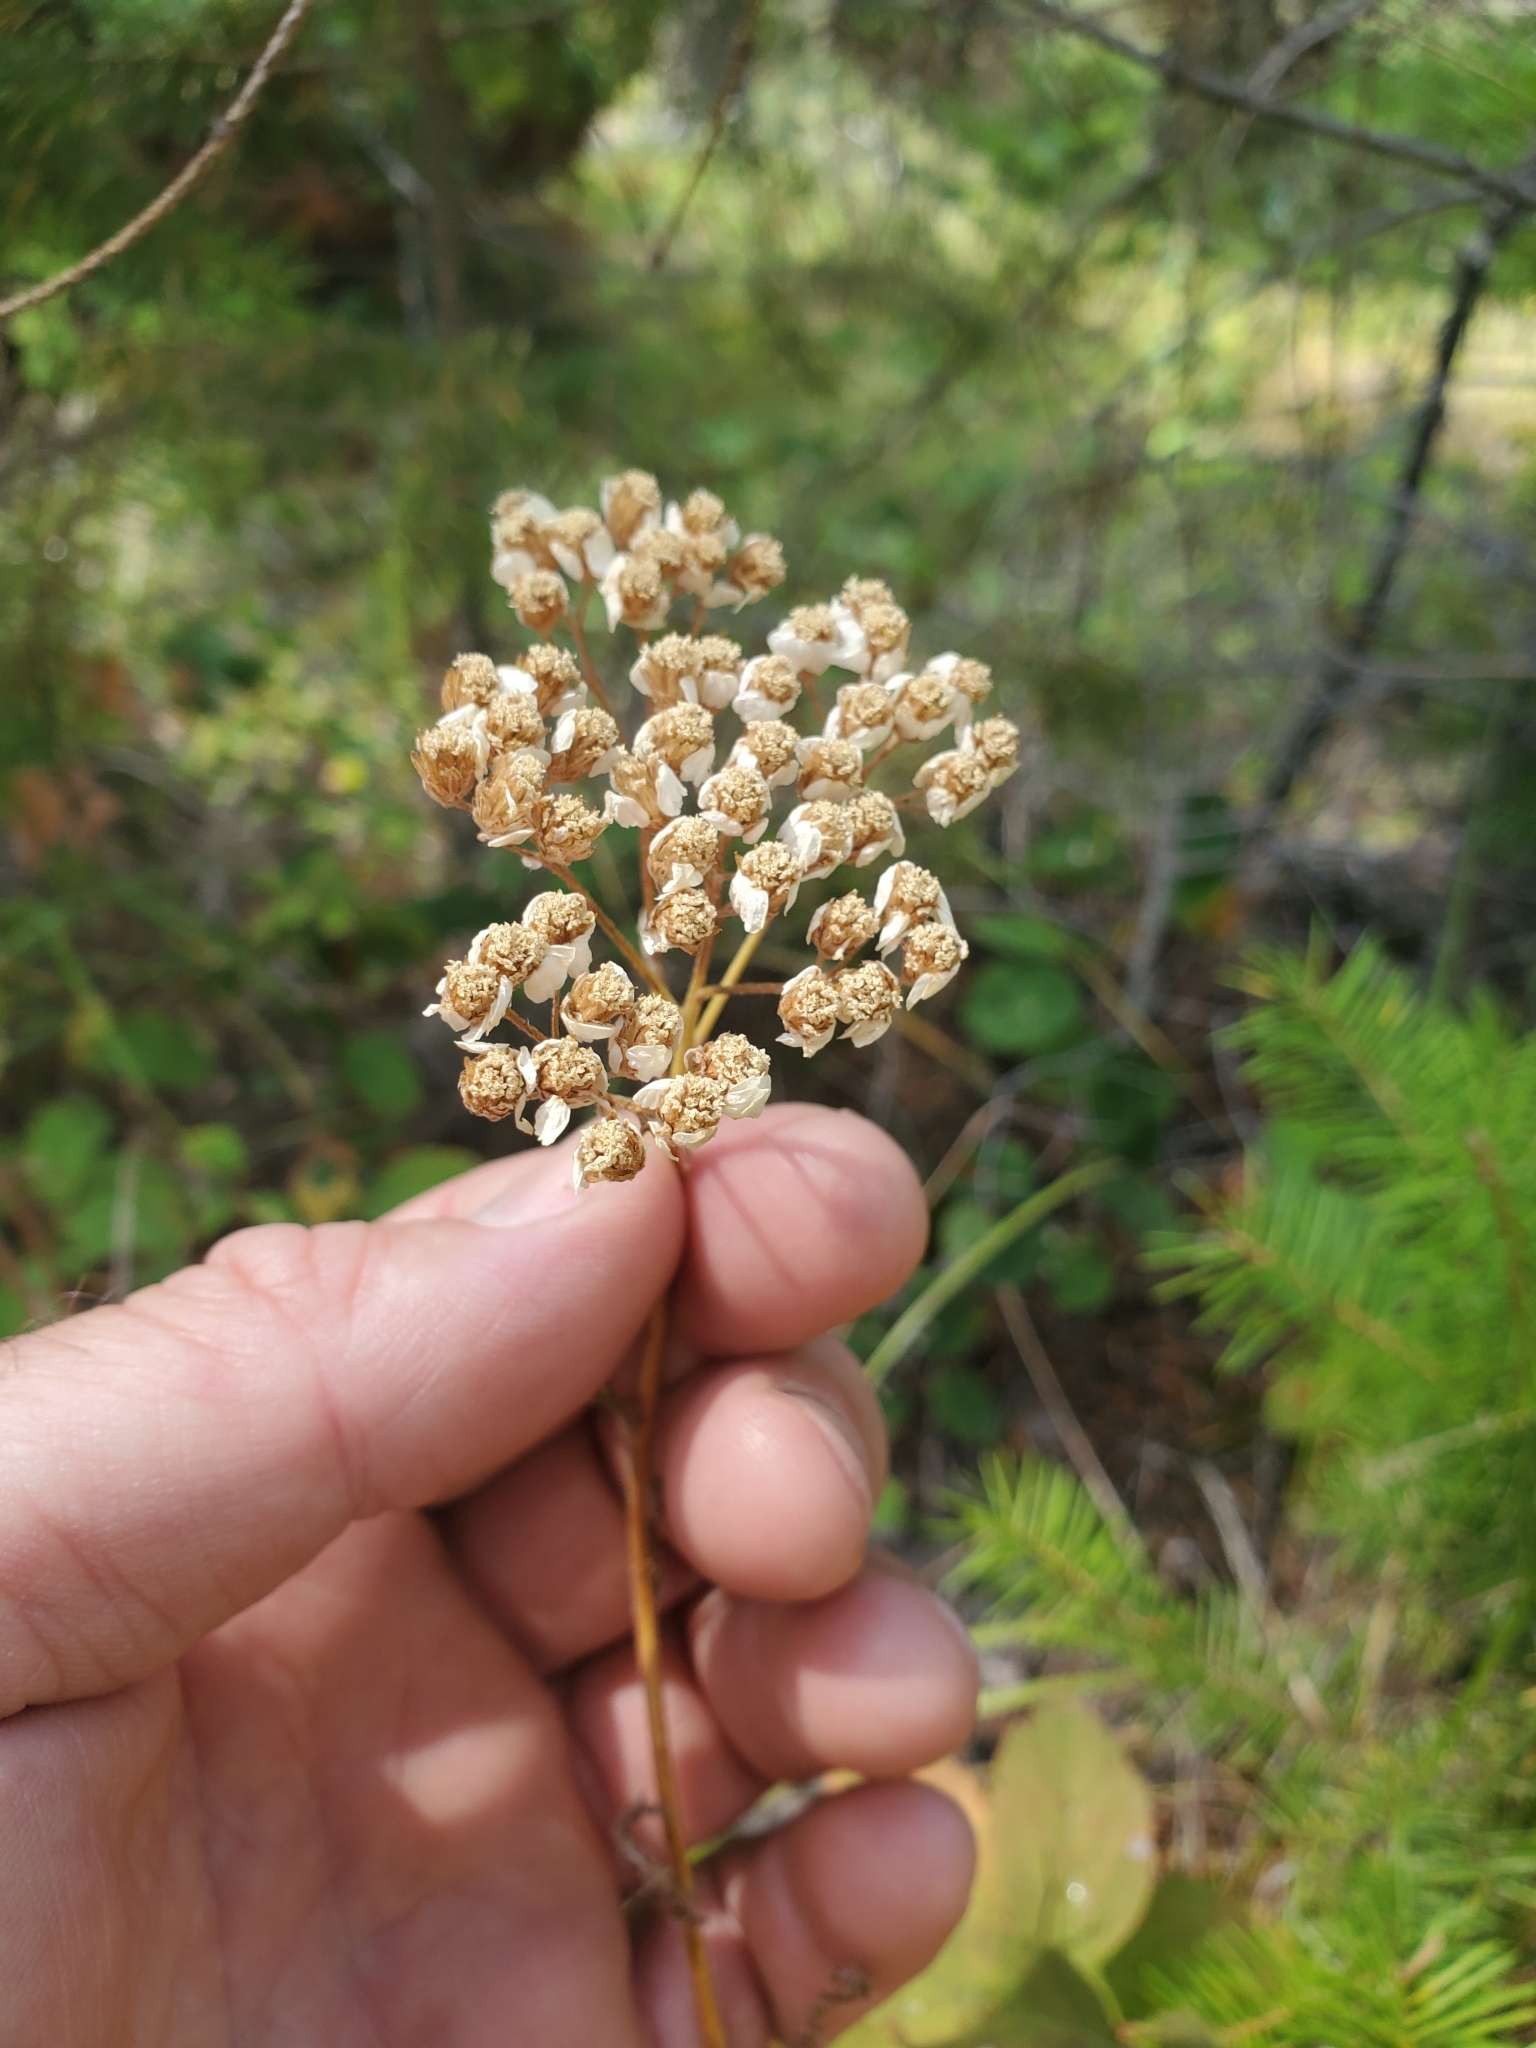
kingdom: Plantae
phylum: Tracheophyta
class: Magnoliopsida
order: Asterales
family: Asteraceae
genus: Achillea
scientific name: Achillea millefolium
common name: Yarrow
